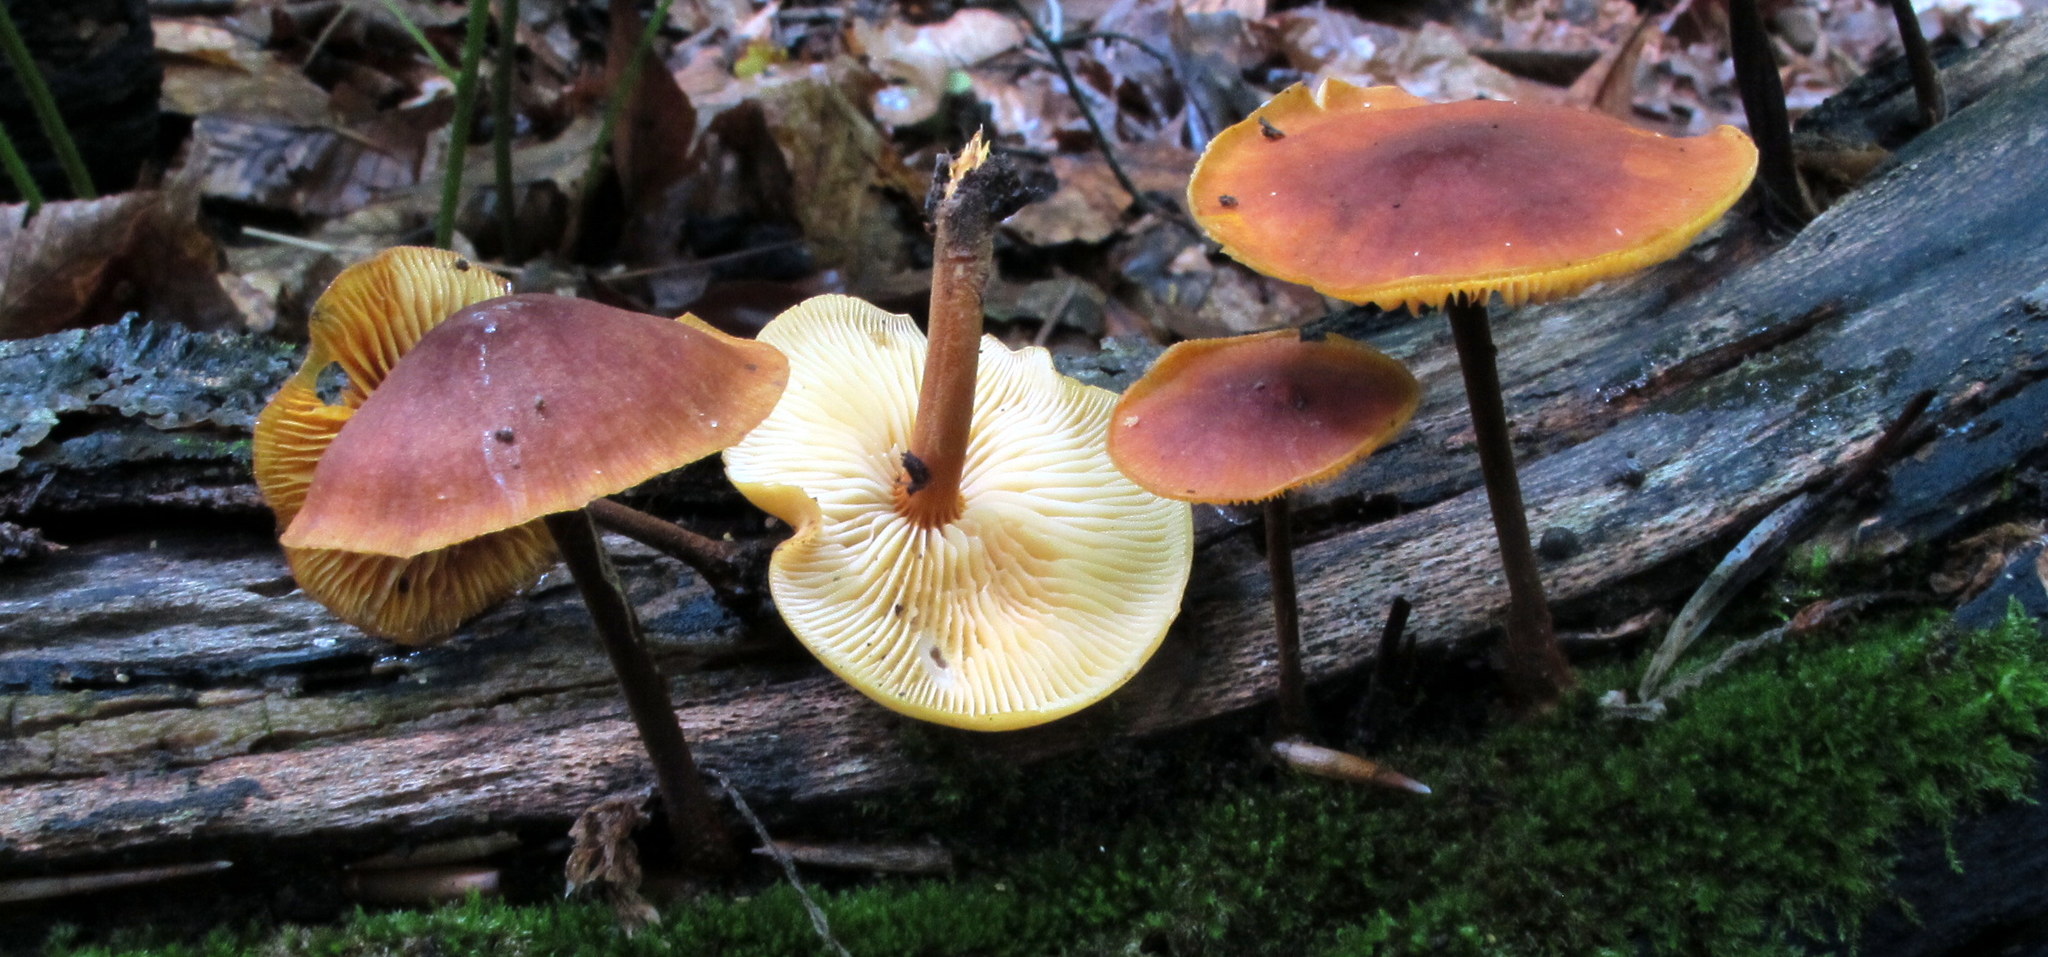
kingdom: Fungi
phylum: Basidiomycota
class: Agaricomycetes
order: Agaricales
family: Mycenaceae
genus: Xeromphalina
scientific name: Xeromphalina tenuipes
